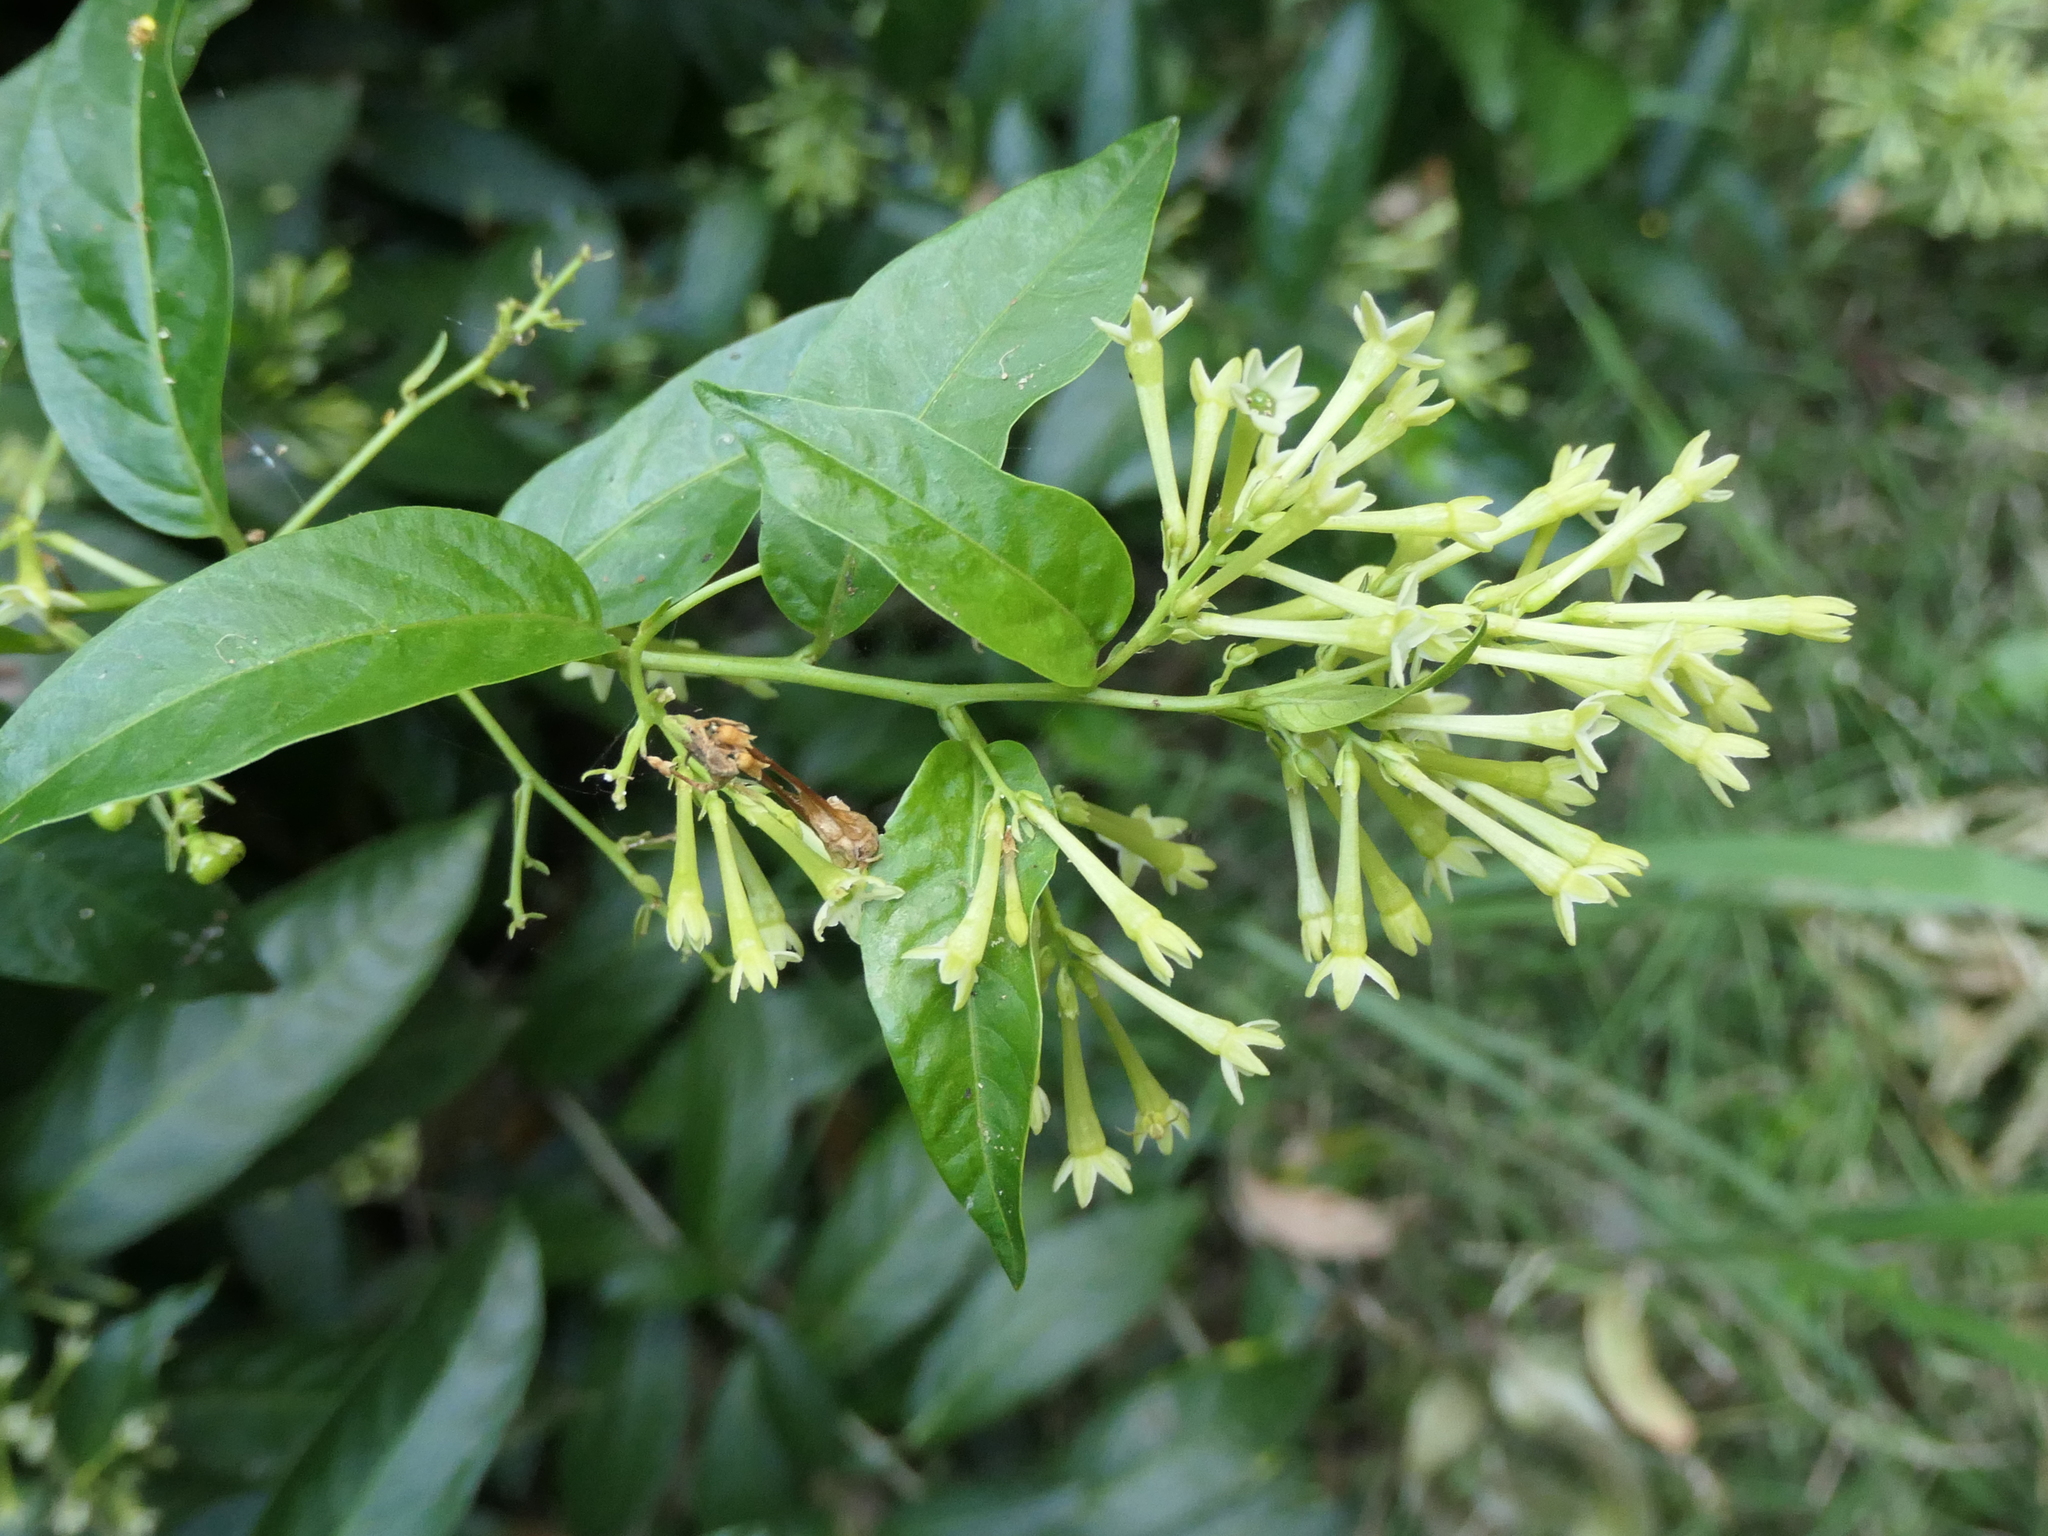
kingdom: Plantae
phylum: Tracheophyta
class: Magnoliopsida
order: Solanales
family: Solanaceae
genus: Cestrum
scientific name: Cestrum nocturnum
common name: Night jessamine
